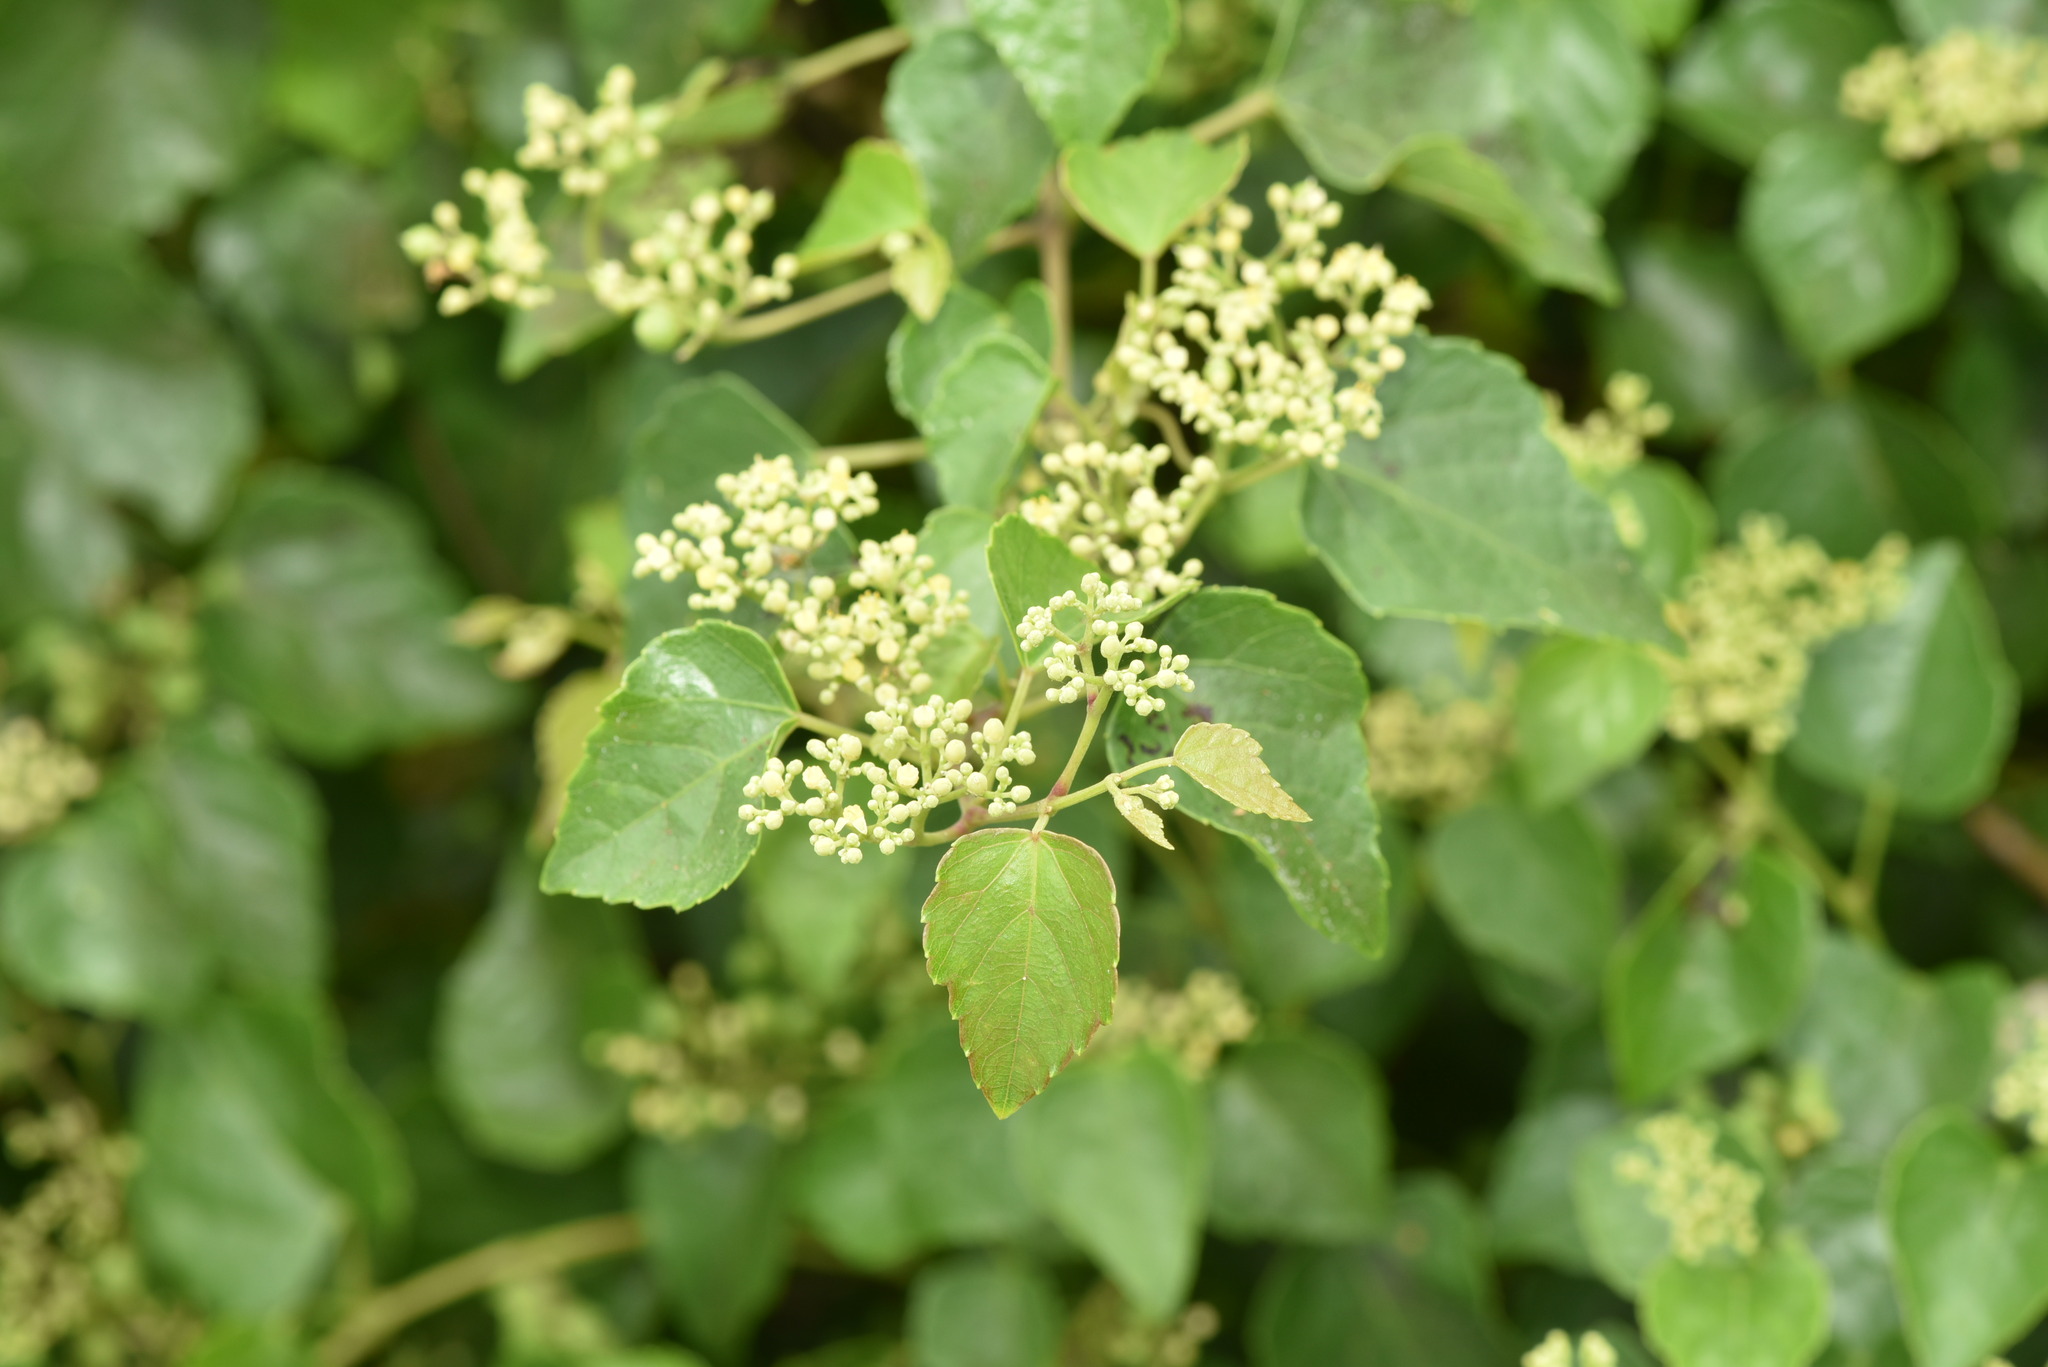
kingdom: Plantae
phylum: Tracheophyta
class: Magnoliopsida
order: Vitales
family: Vitaceae
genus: Ampelopsis
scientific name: Ampelopsis glandulosa
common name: Amur peppervine
